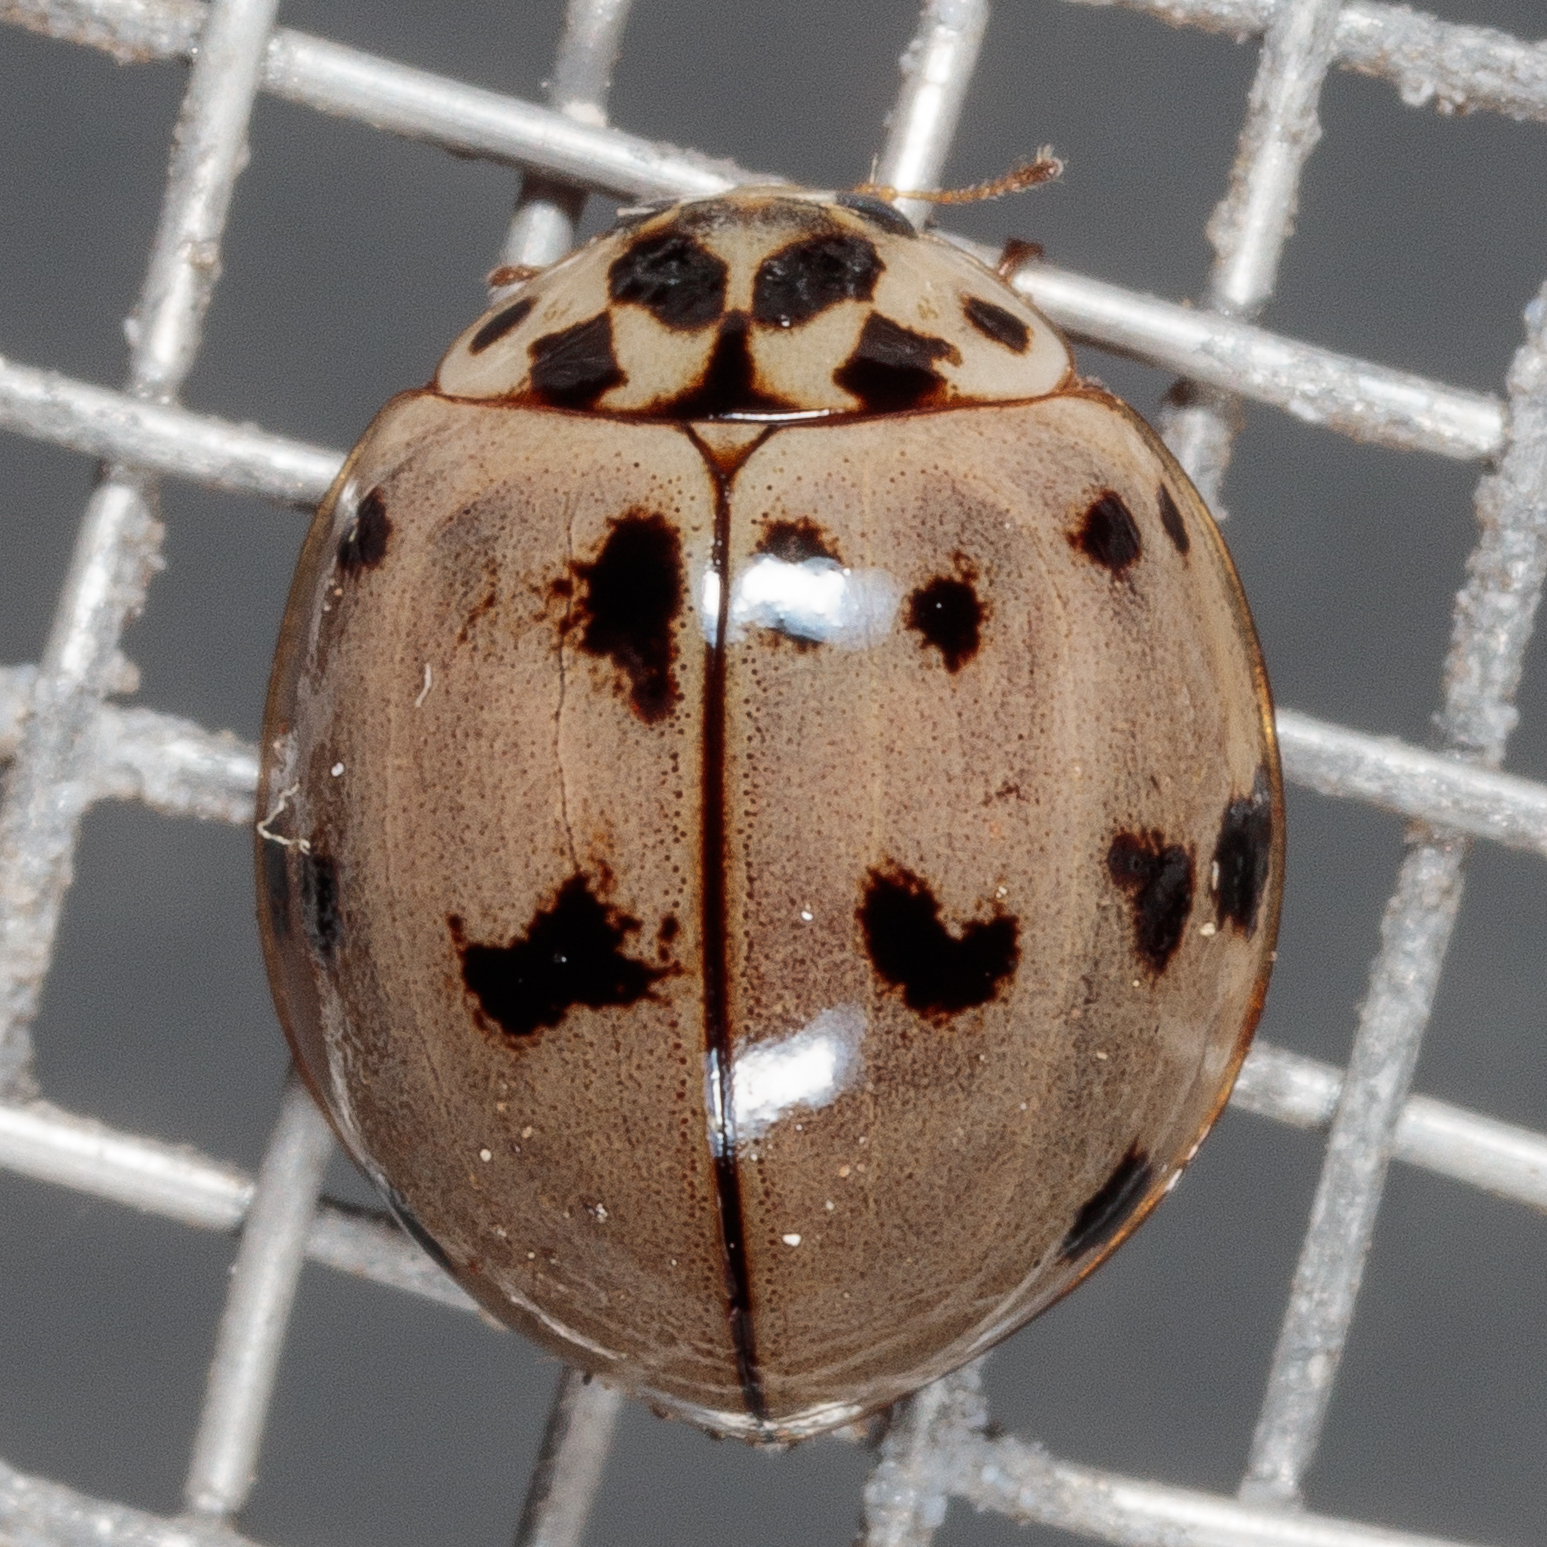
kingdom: Animalia
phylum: Arthropoda
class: Insecta
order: Coleoptera
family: Coccinellidae
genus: Olla
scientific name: Olla v-nigrum
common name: Ashy gray lady beetle
